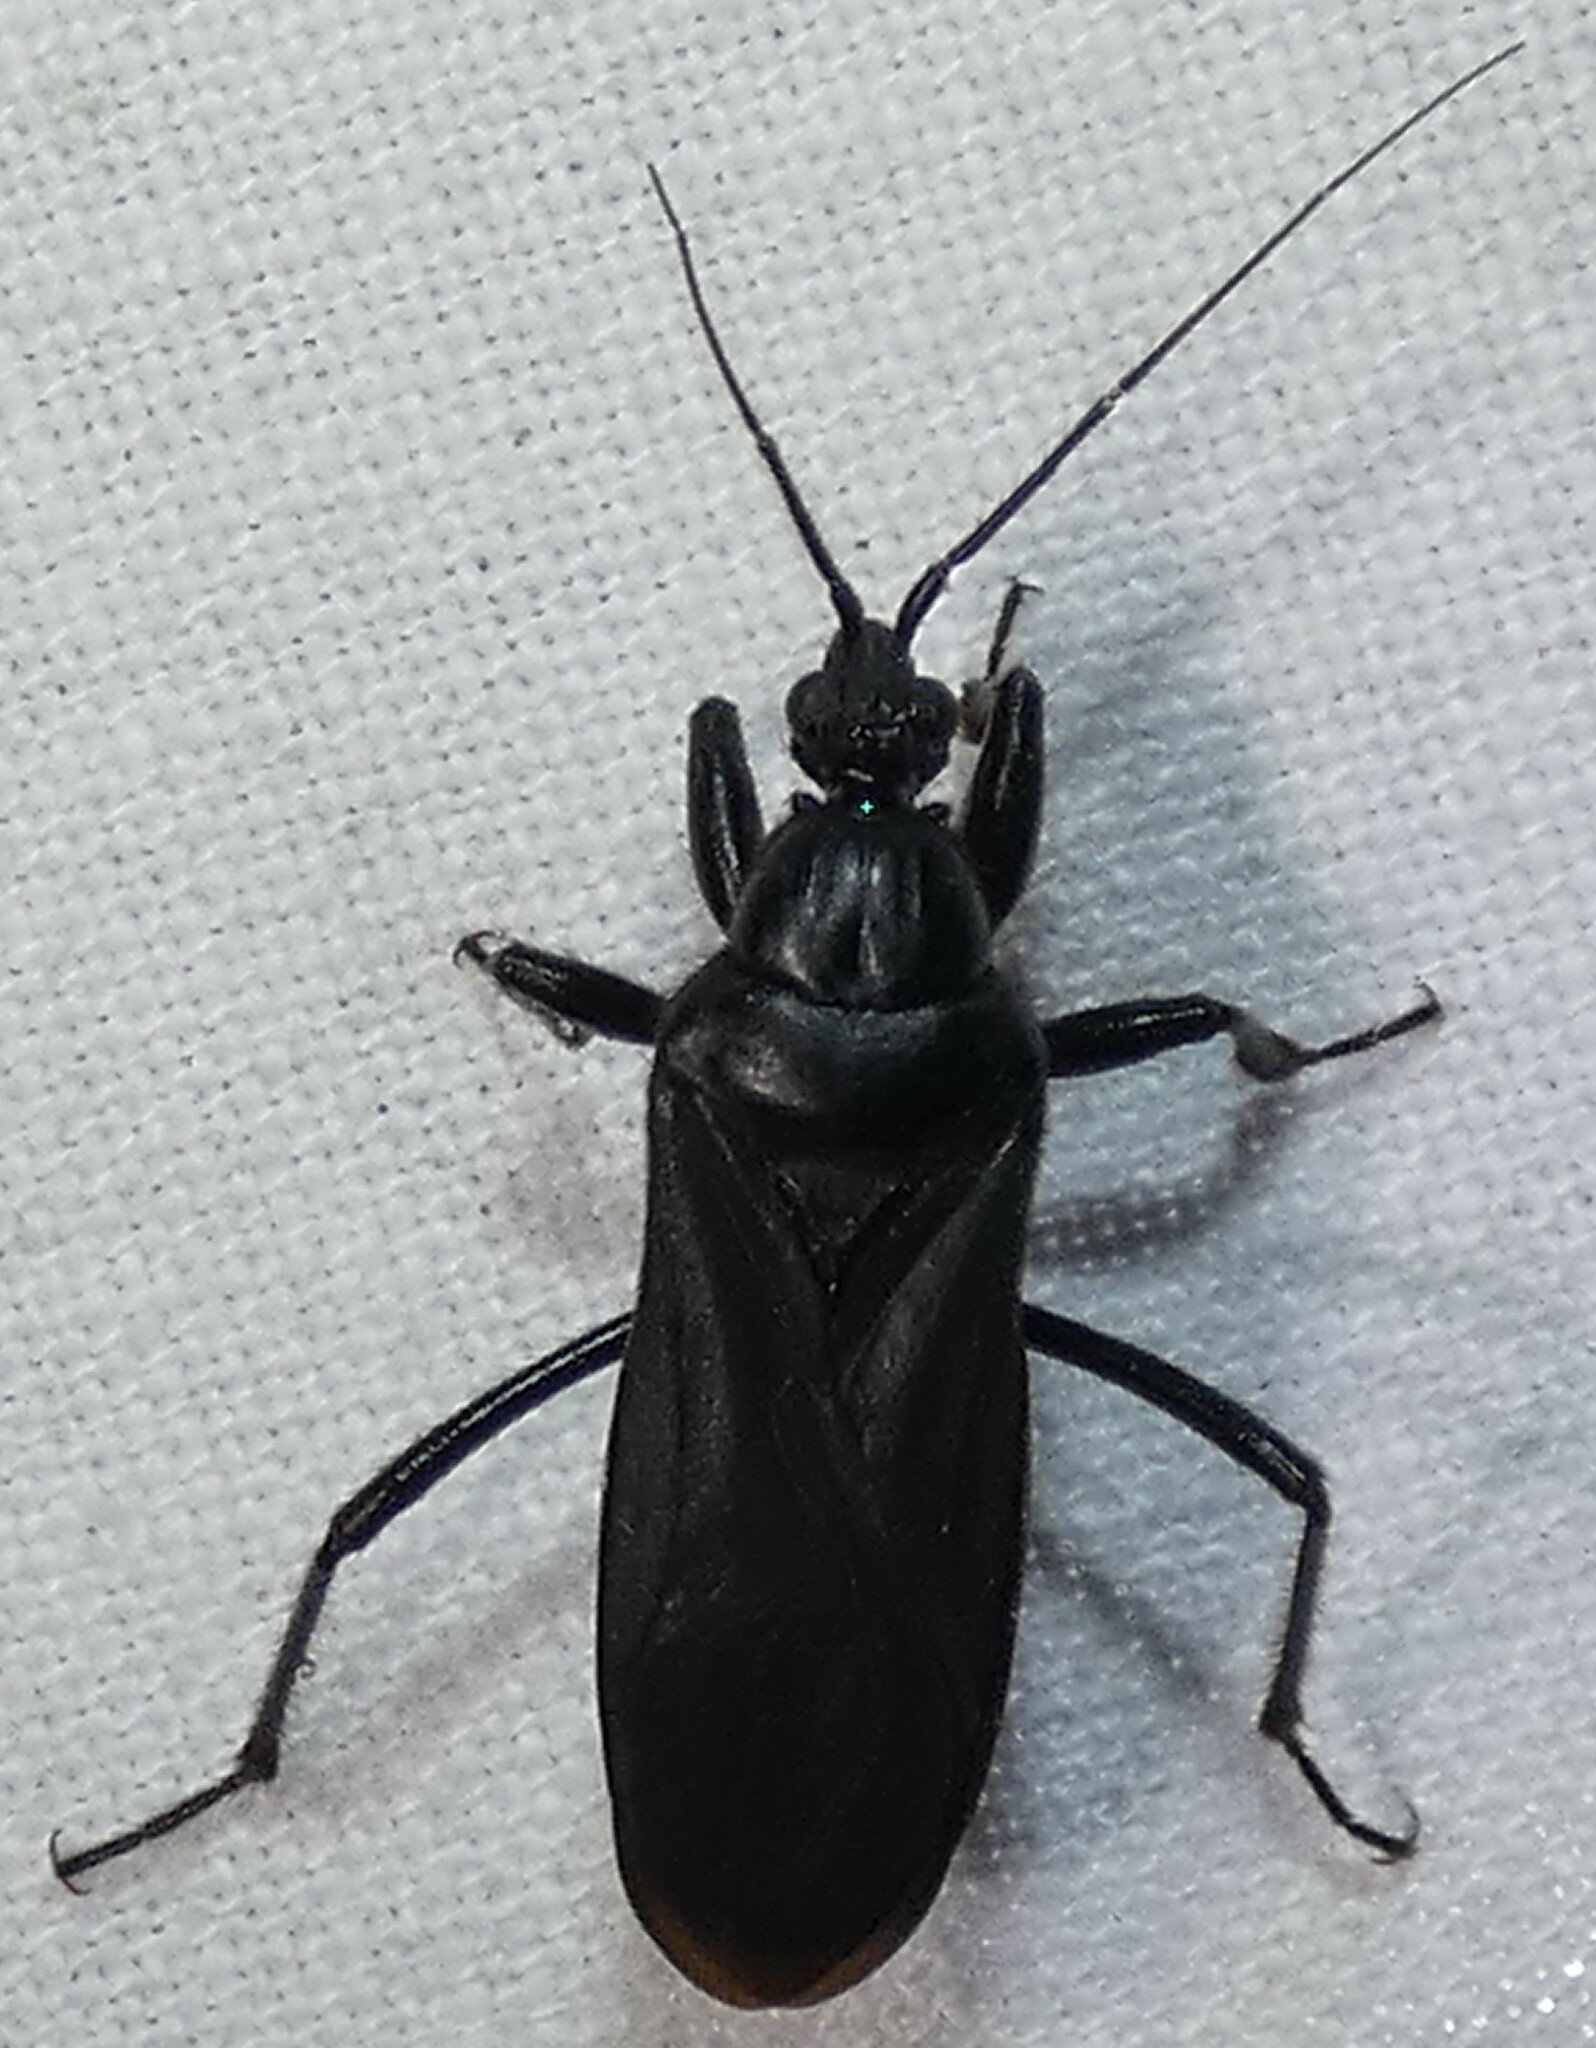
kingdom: Animalia
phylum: Arthropoda
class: Insecta
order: Hemiptera
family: Reduviidae
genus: Melanolestes
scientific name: Melanolestes picipes
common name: Assassin bug
